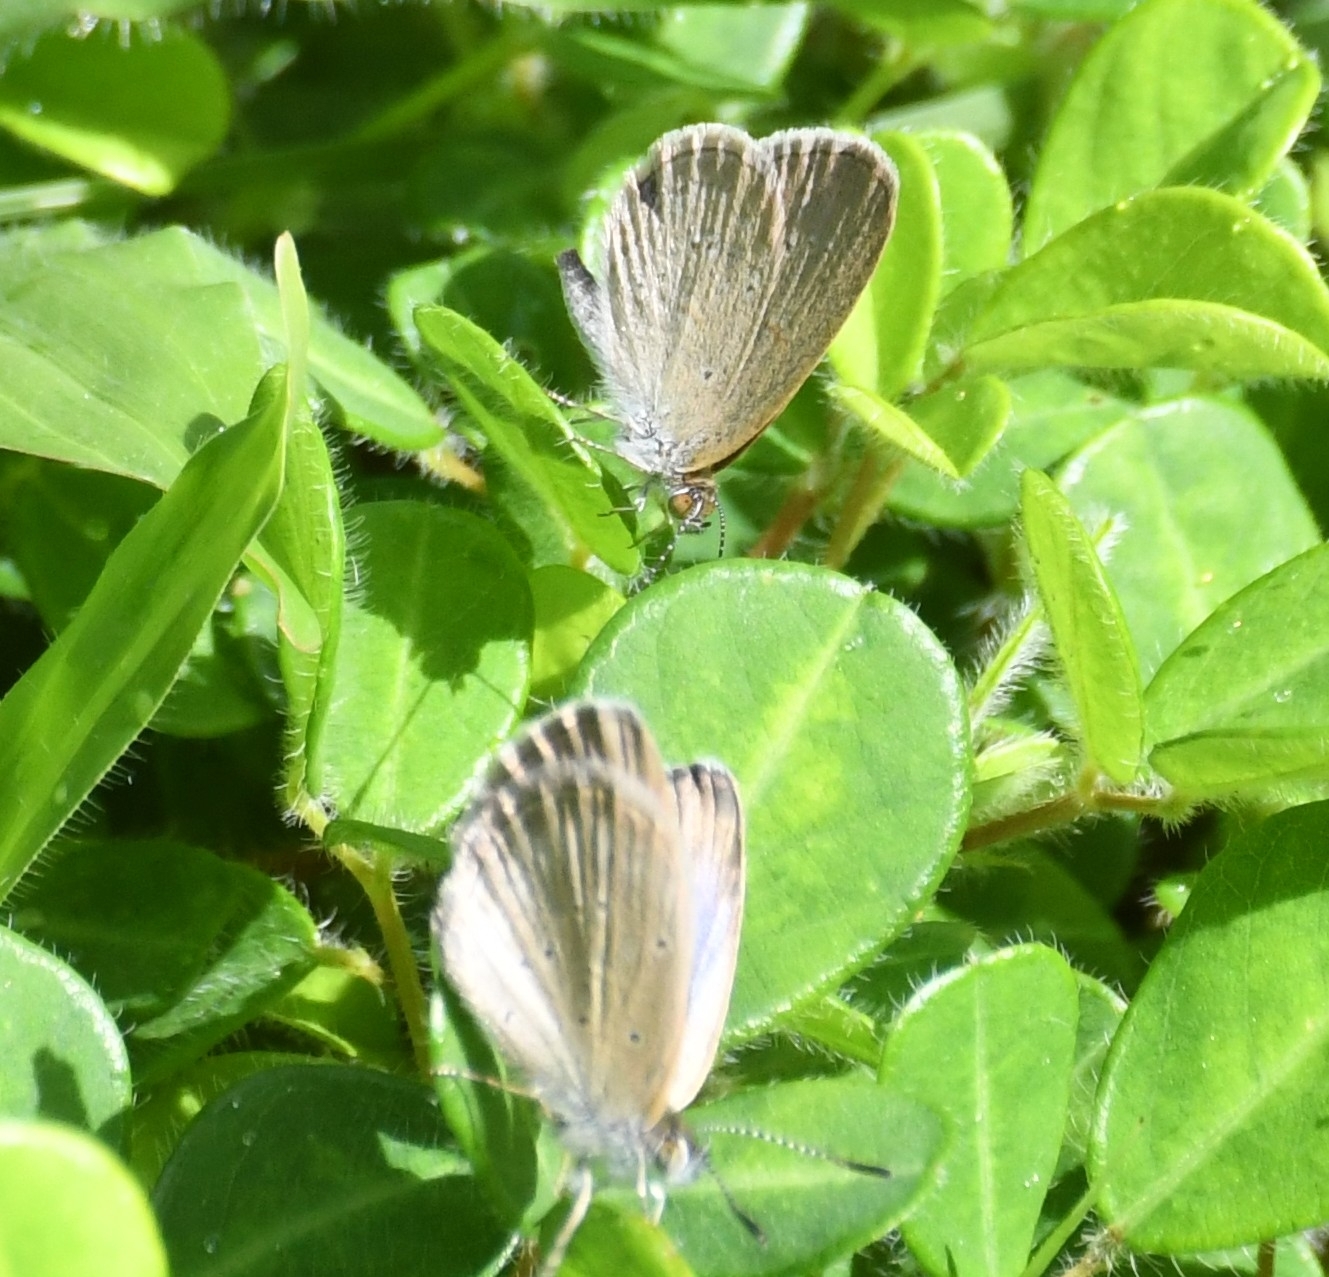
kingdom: Animalia
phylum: Arthropoda
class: Insecta
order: Lepidoptera
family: Lycaenidae
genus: Zizina
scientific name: Zizina otis
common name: Lesser grass blue
